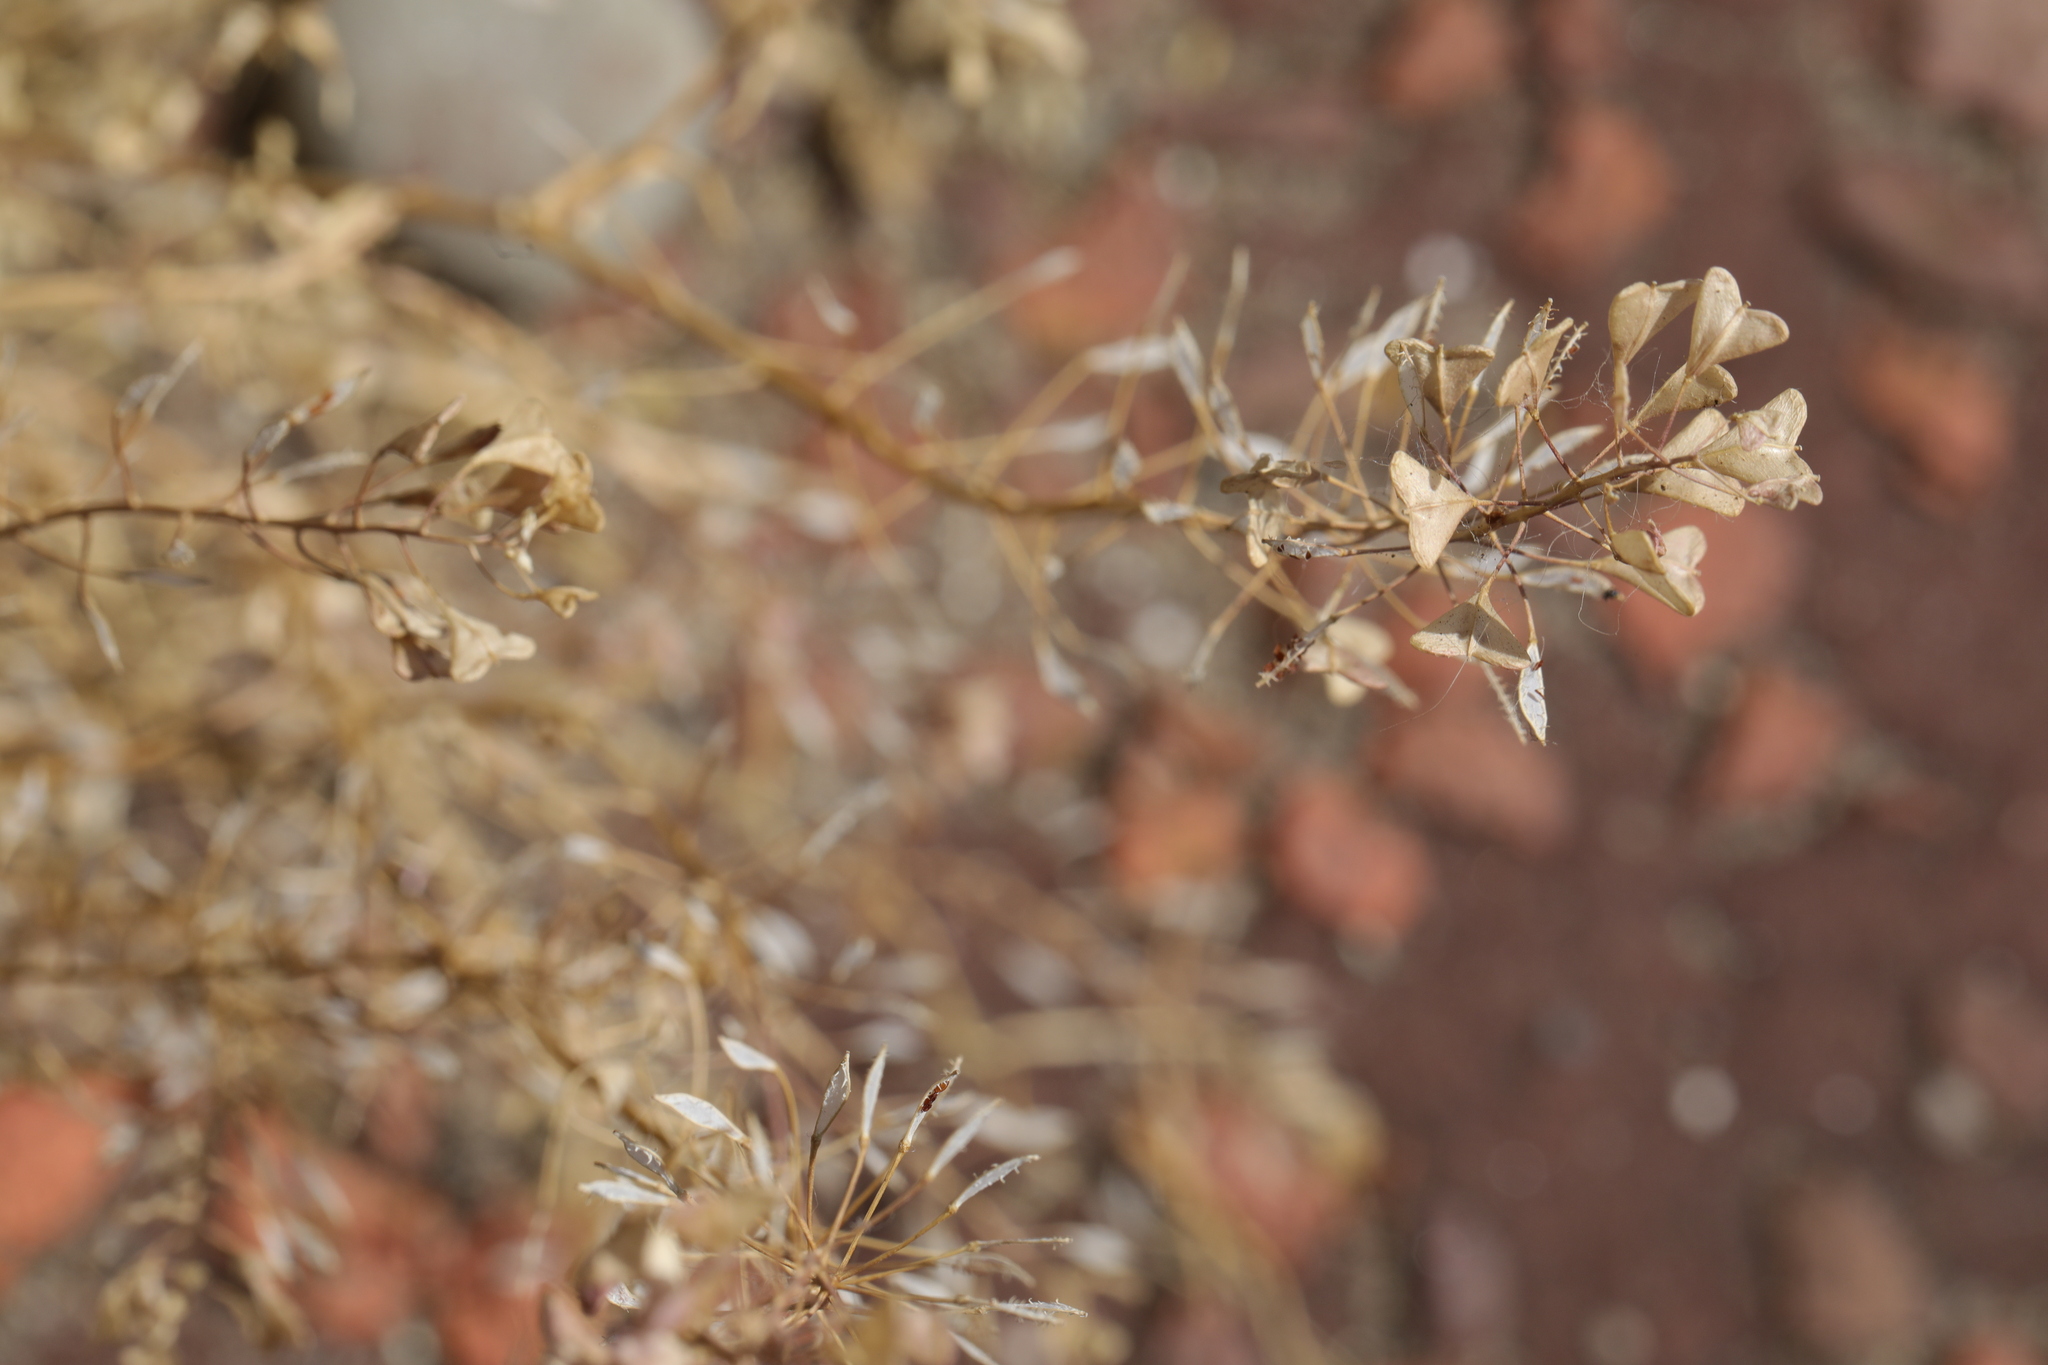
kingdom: Plantae
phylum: Tracheophyta
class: Magnoliopsida
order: Brassicales
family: Brassicaceae
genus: Capsella
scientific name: Capsella bursa-pastoris
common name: Shepherd's purse
